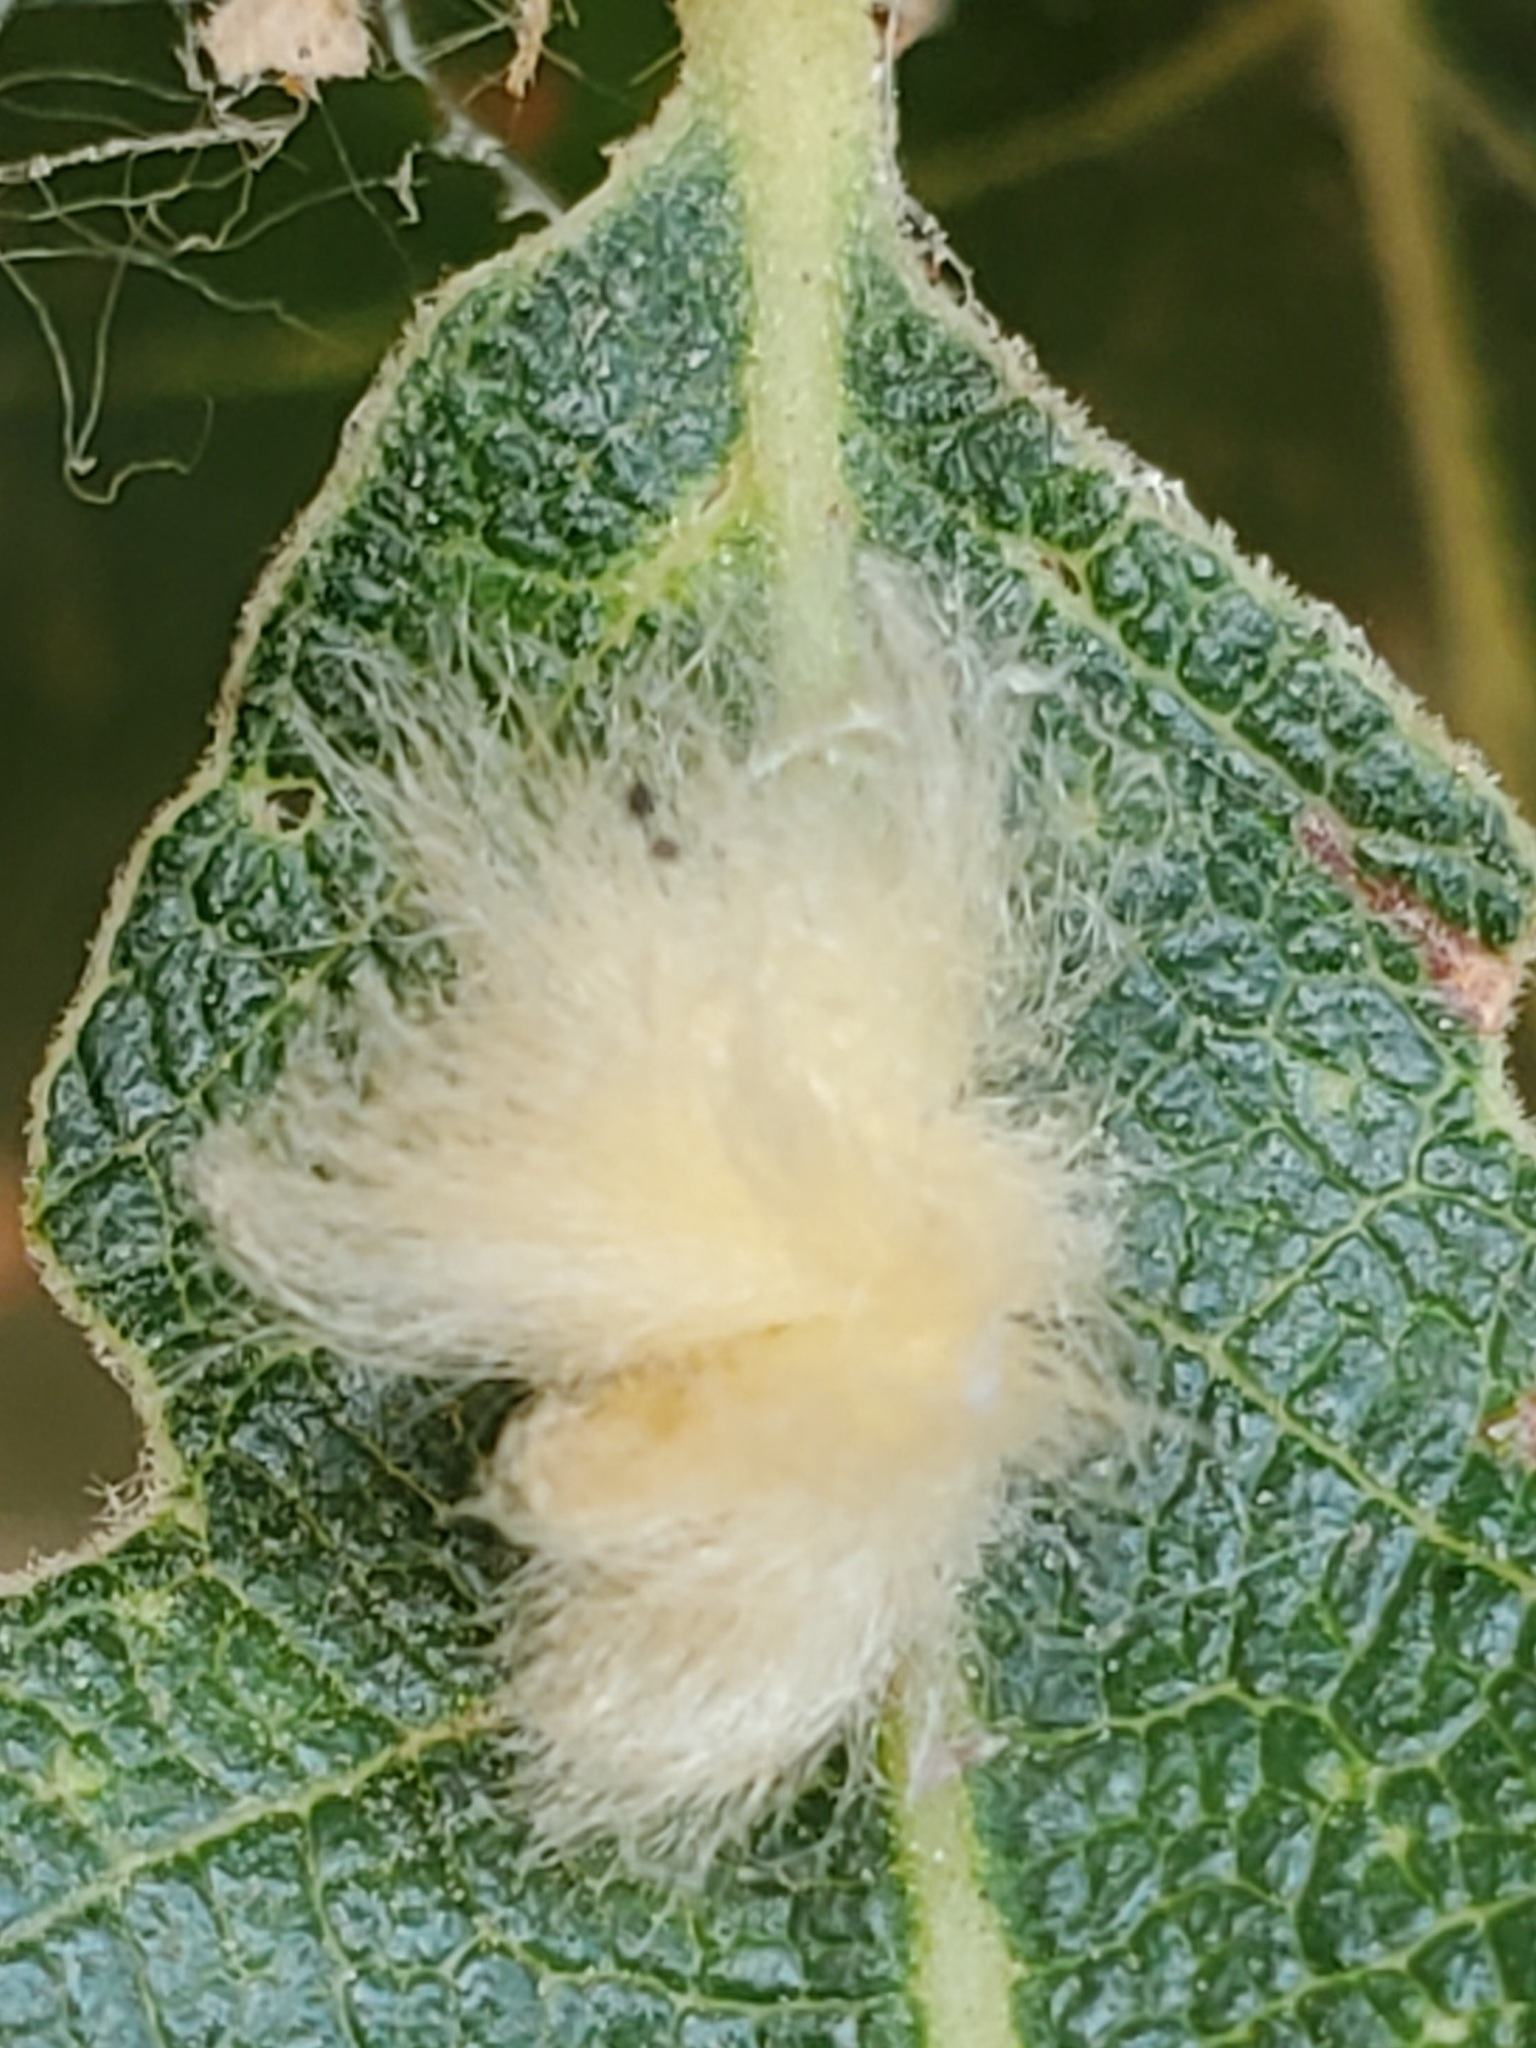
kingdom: Animalia
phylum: Arthropoda
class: Insecta
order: Hymenoptera
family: Cynipidae
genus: Andricus
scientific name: Andricus Druon fullawayi
